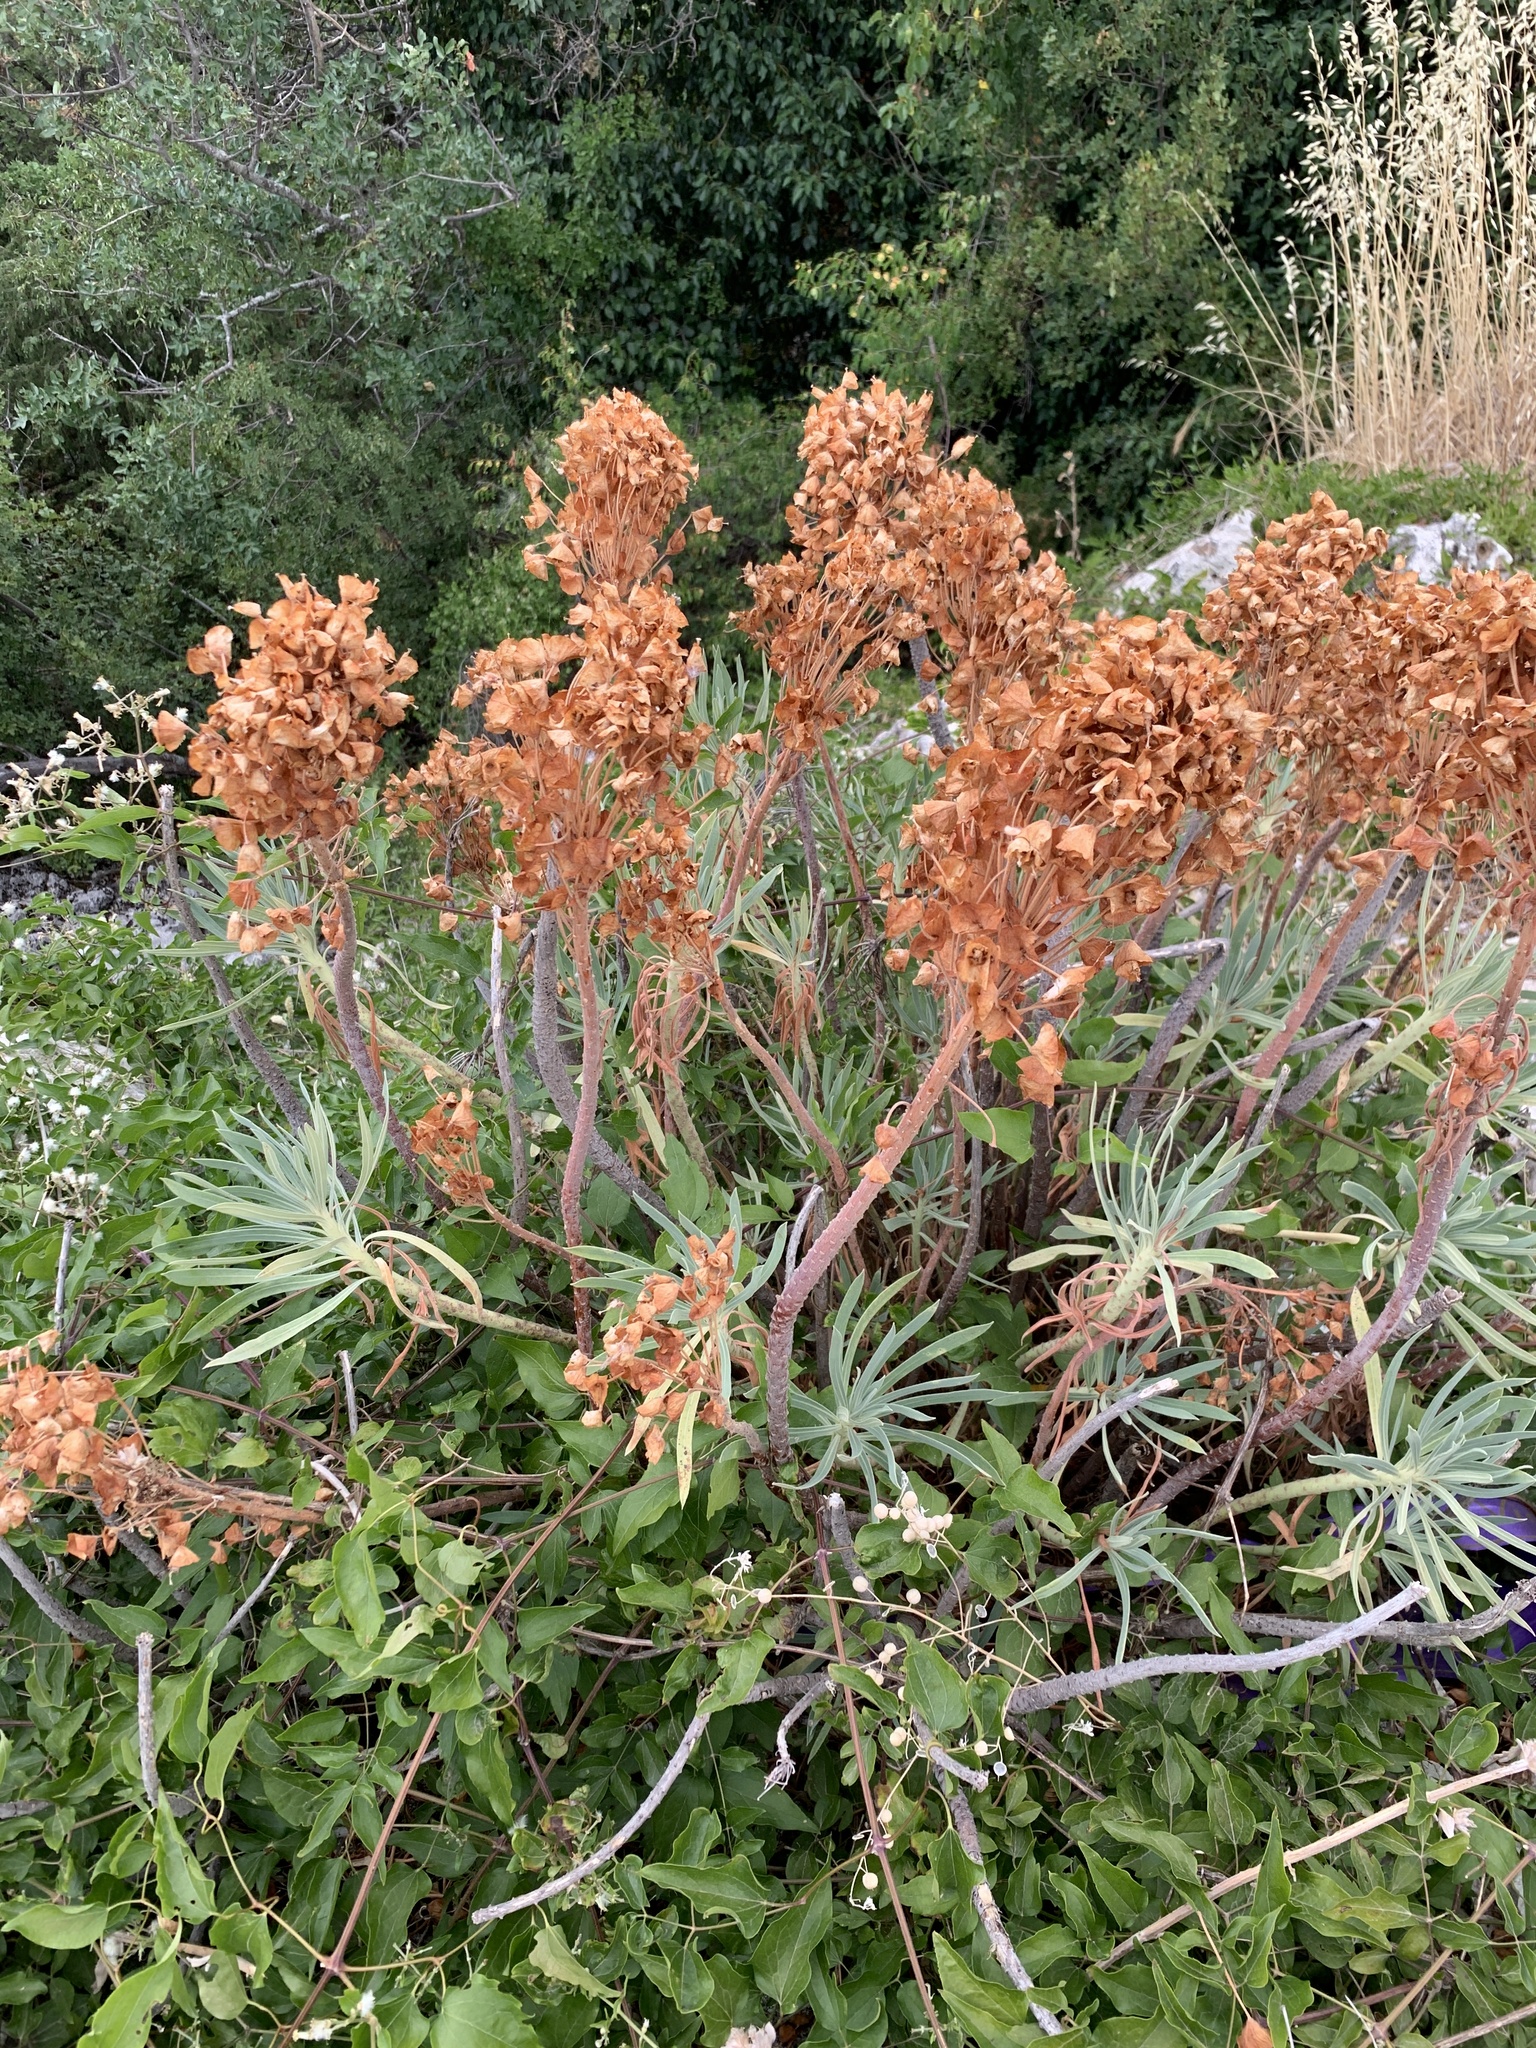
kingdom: Plantae
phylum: Tracheophyta
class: Magnoliopsida
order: Malpighiales
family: Euphorbiaceae
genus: Euphorbia
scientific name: Euphorbia characias
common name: Mediterranean spurge
